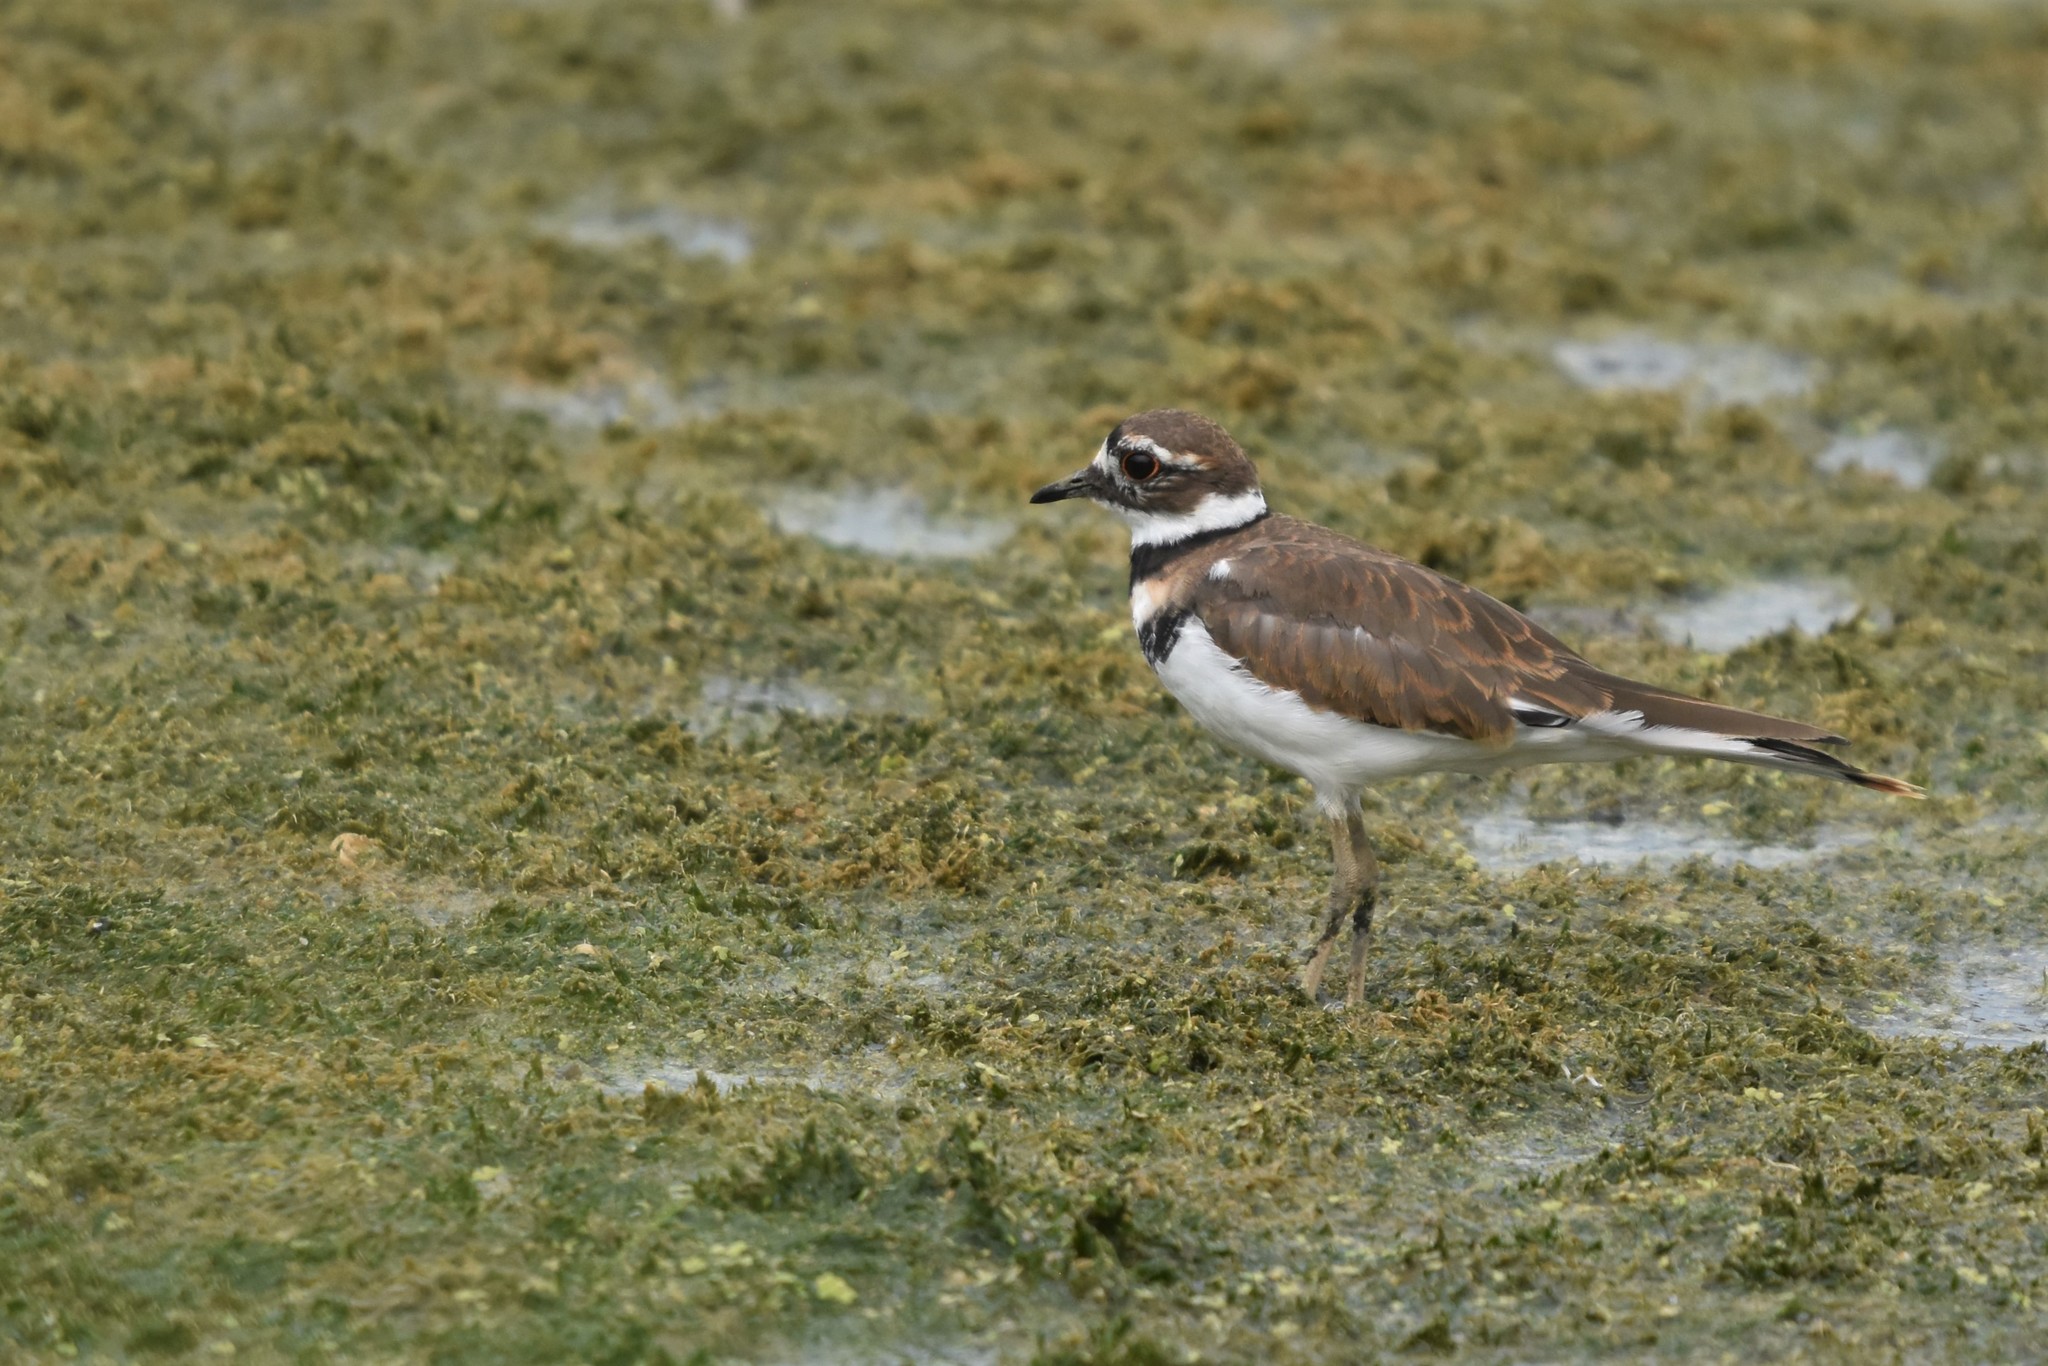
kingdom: Animalia
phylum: Chordata
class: Aves
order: Charadriiformes
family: Charadriidae
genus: Charadrius
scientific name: Charadrius vociferus
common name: Killdeer
